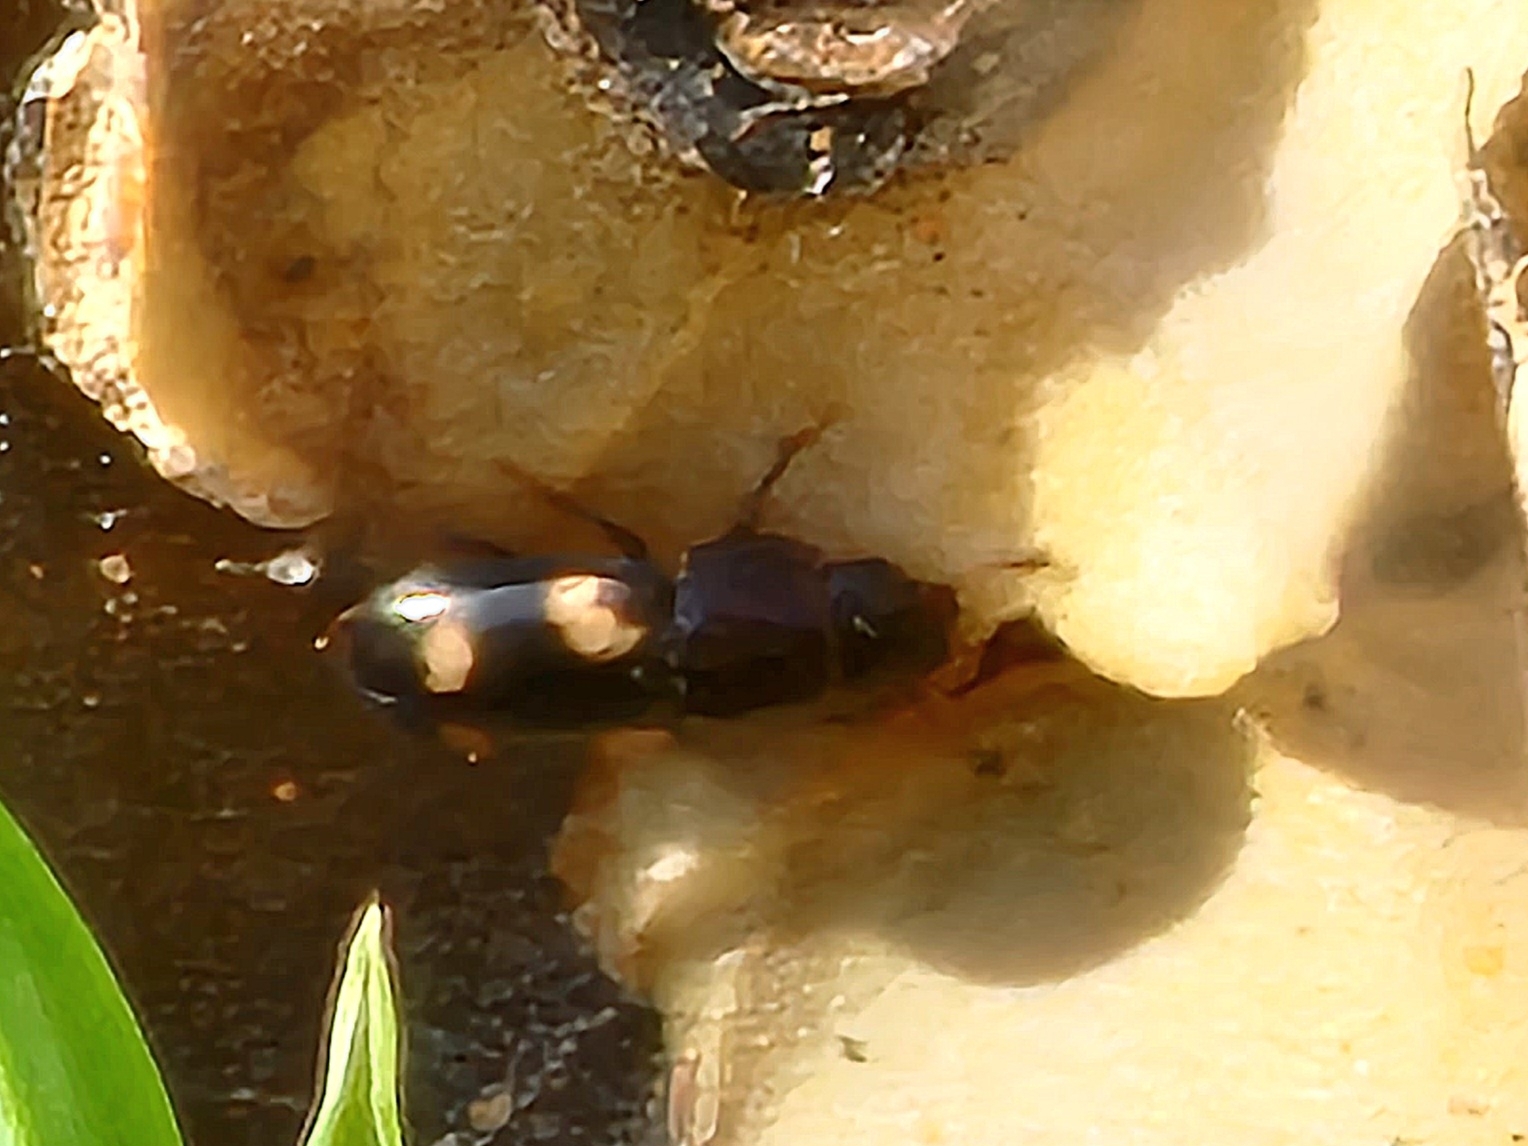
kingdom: Animalia
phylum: Arthropoda
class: Insecta
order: Coleoptera
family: Nitidulidae
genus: Glischrochilus
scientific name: Glischrochilus quadrisignatus
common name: Picnic beetle
